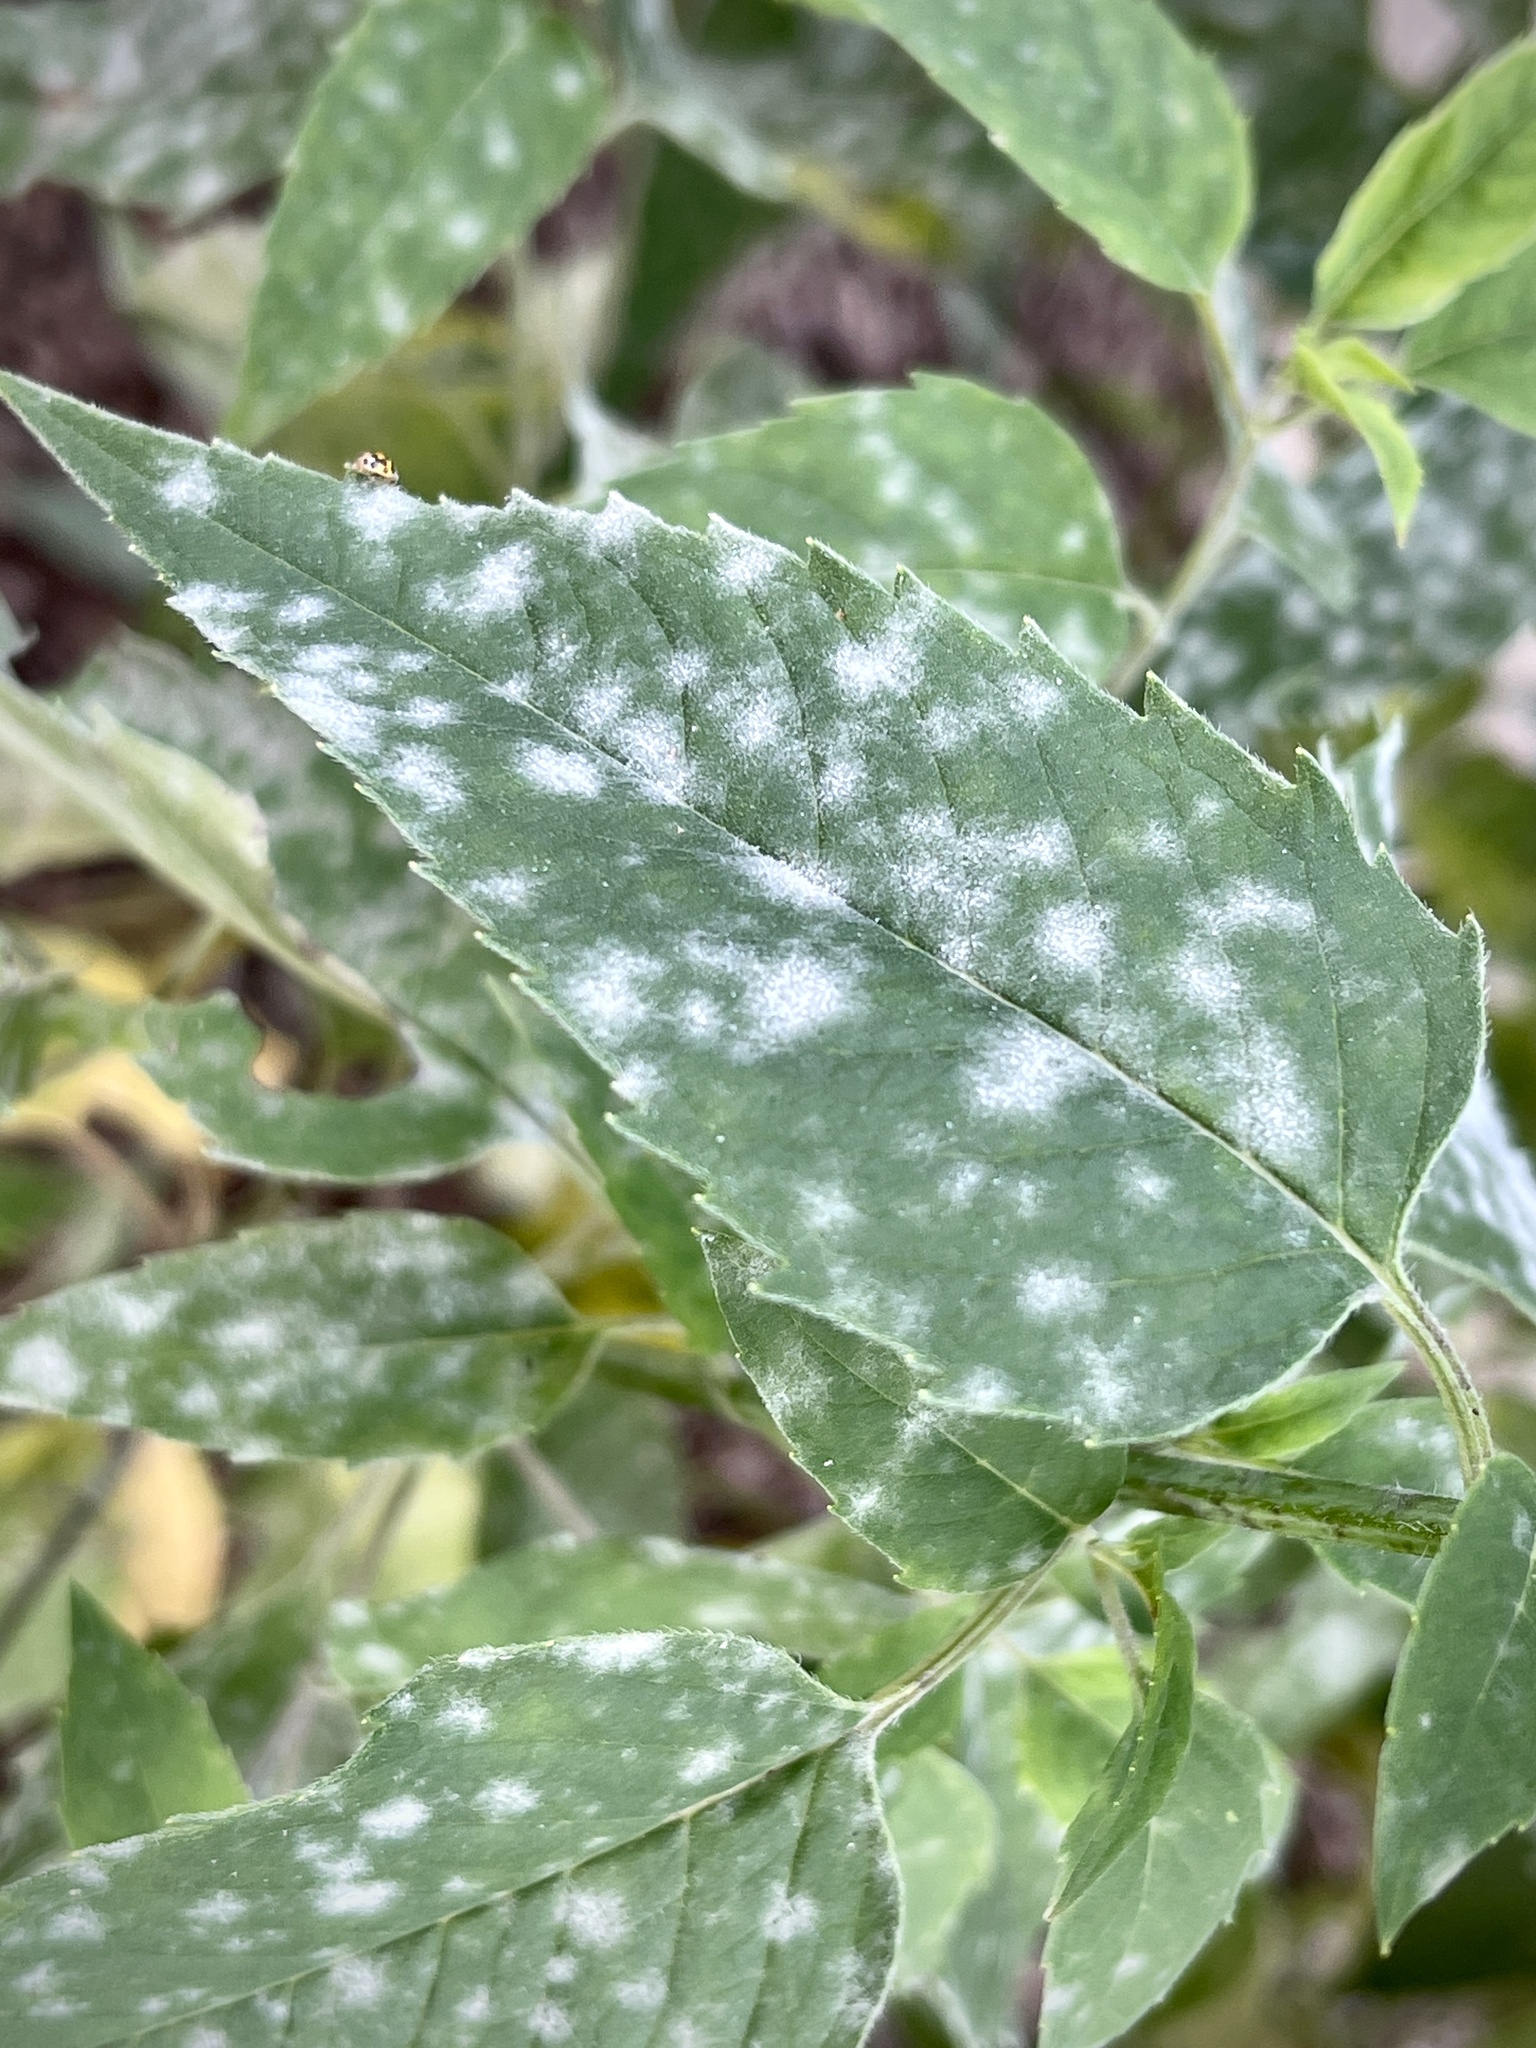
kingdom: Fungi
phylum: Ascomycota
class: Leotiomycetes
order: Helotiales
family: Erysiphaceae
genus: Golovinomyces
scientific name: Golovinomyces monardae
